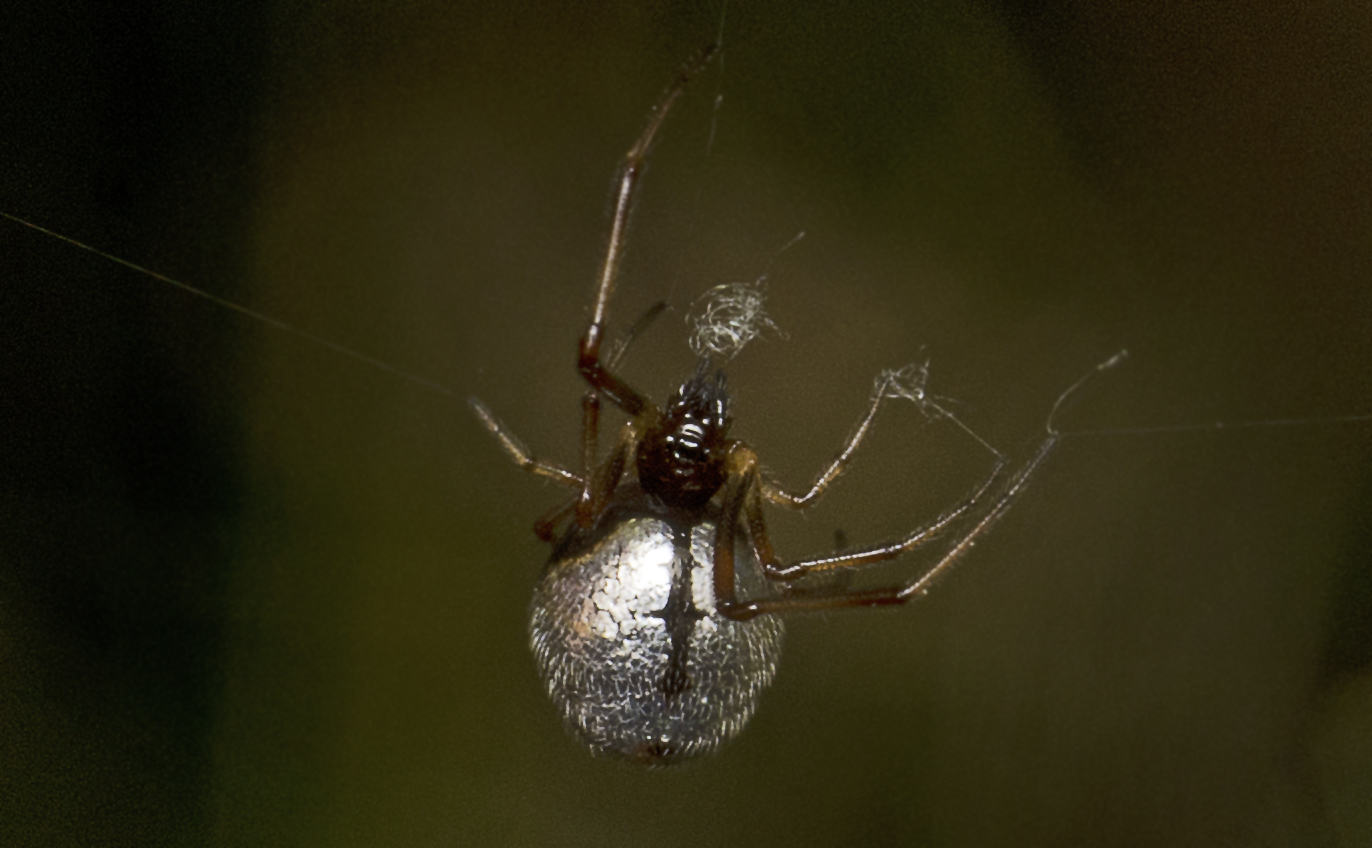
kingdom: Animalia
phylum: Arthropoda
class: Arachnida
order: Araneae
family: Theridiidae
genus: Argyrodes
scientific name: Argyrodes antipodianus
